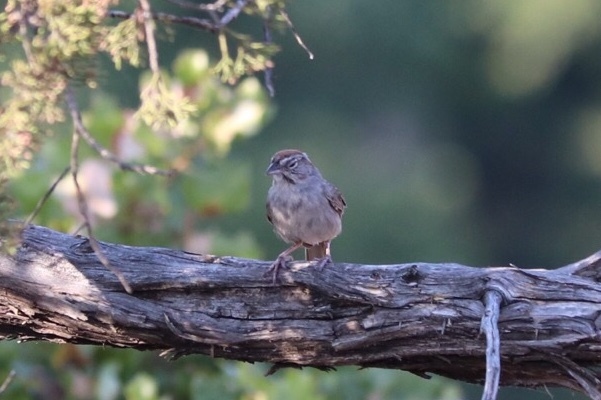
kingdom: Animalia
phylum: Chordata
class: Aves
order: Passeriformes
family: Passerellidae
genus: Aimophila
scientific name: Aimophila ruficeps
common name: Rufous-crowned sparrow
